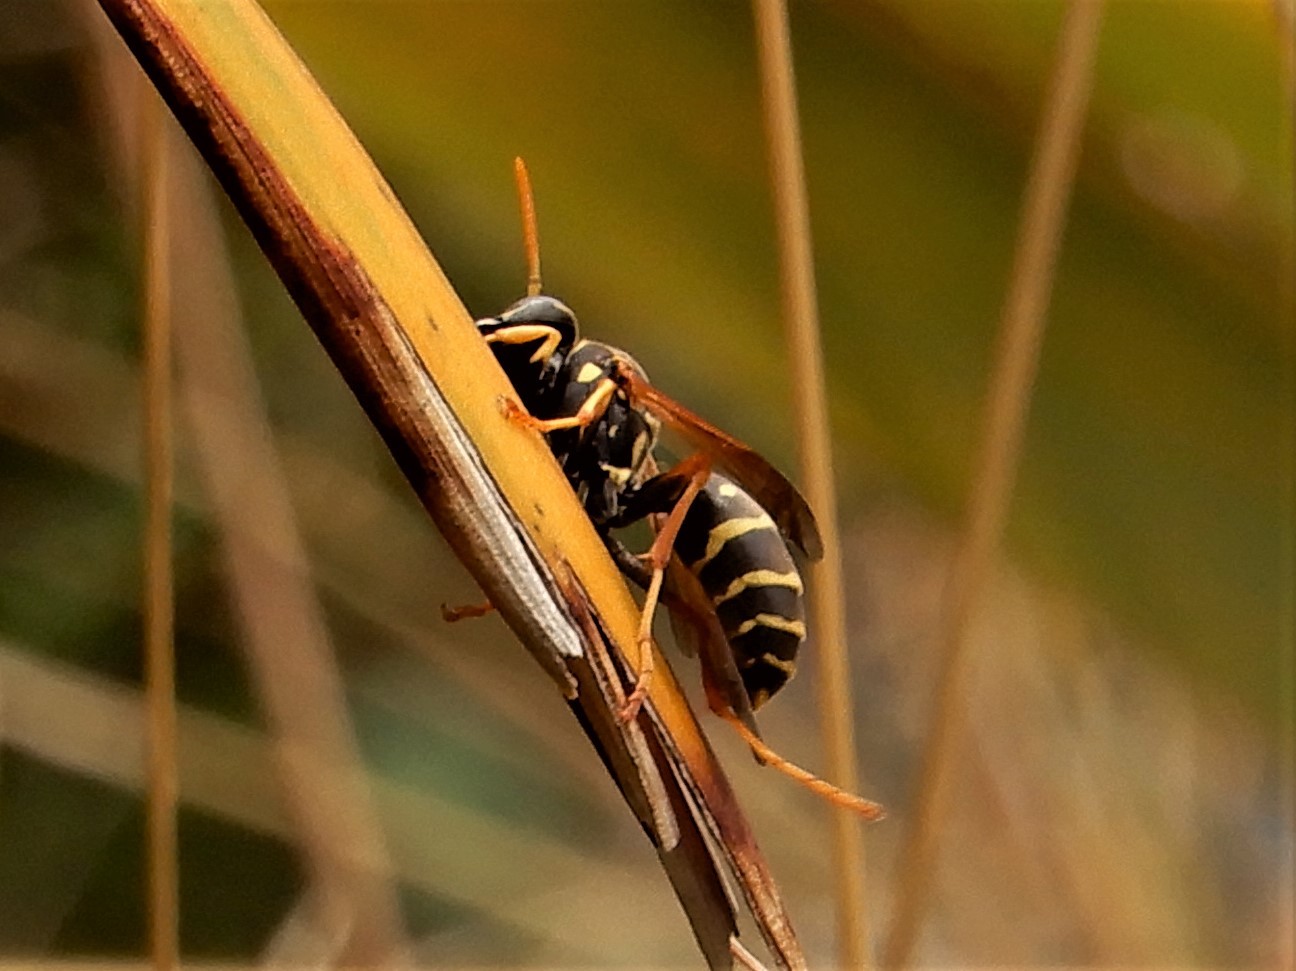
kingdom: Animalia
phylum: Arthropoda
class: Insecta
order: Hymenoptera
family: Eumenidae
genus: Polistes
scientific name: Polistes chinensis
